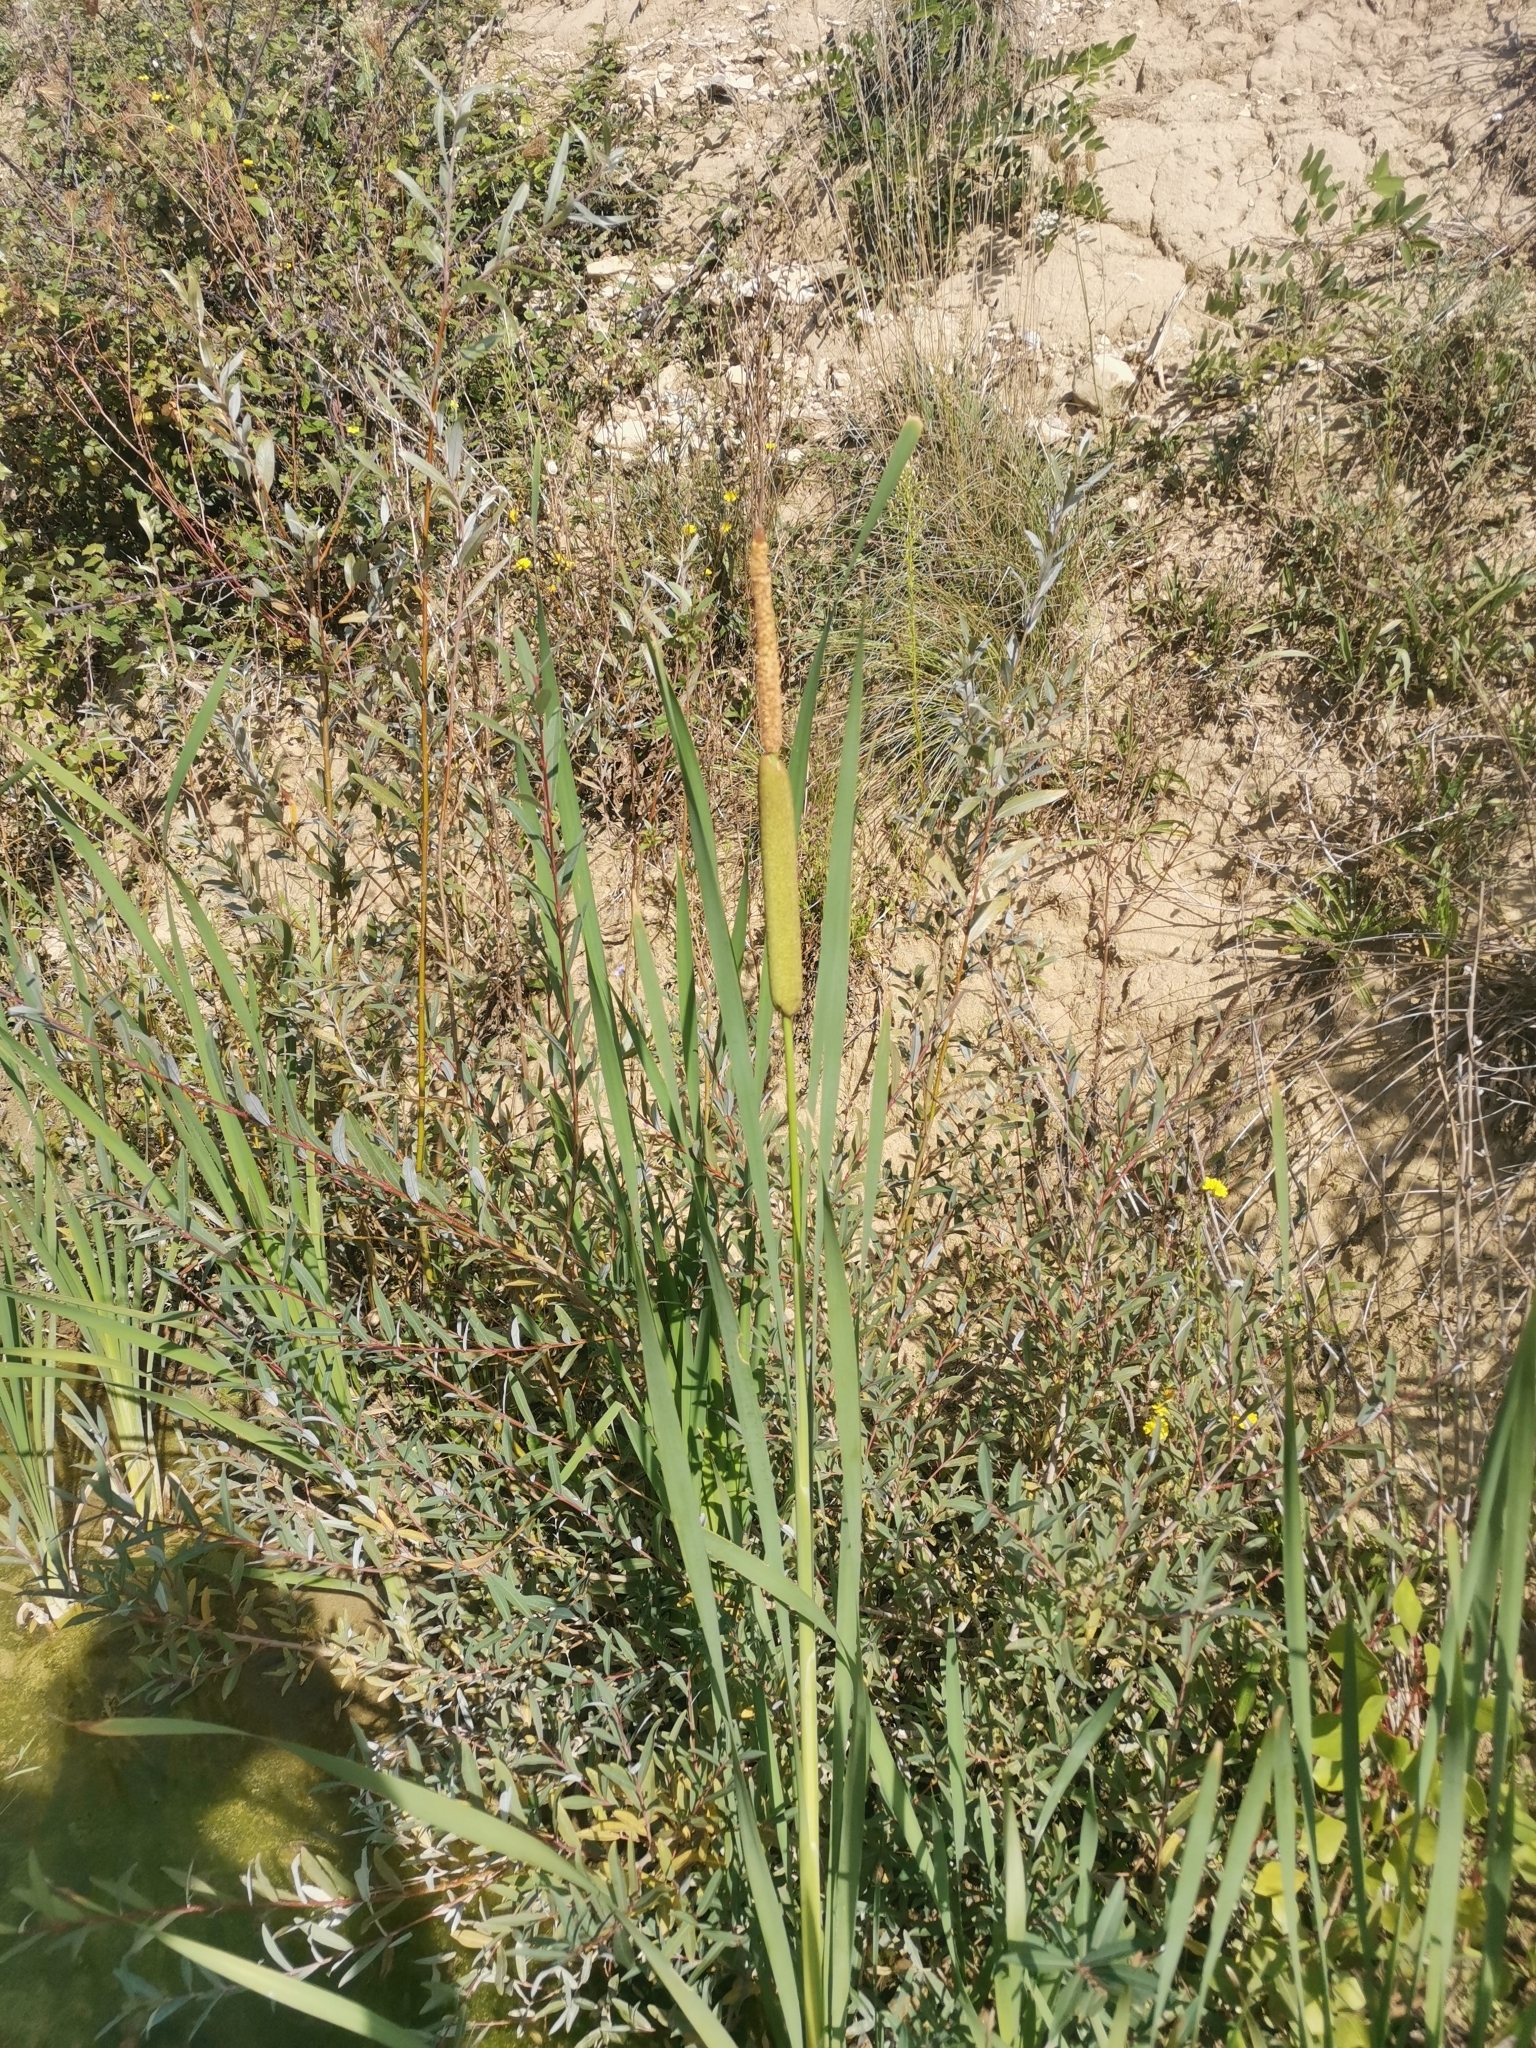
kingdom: Plantae
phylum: Tracheophyta
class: Liliopsida
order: Poales
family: Typhaceae
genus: Typha
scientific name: Typha latifolia
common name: Broadleaf cattail
